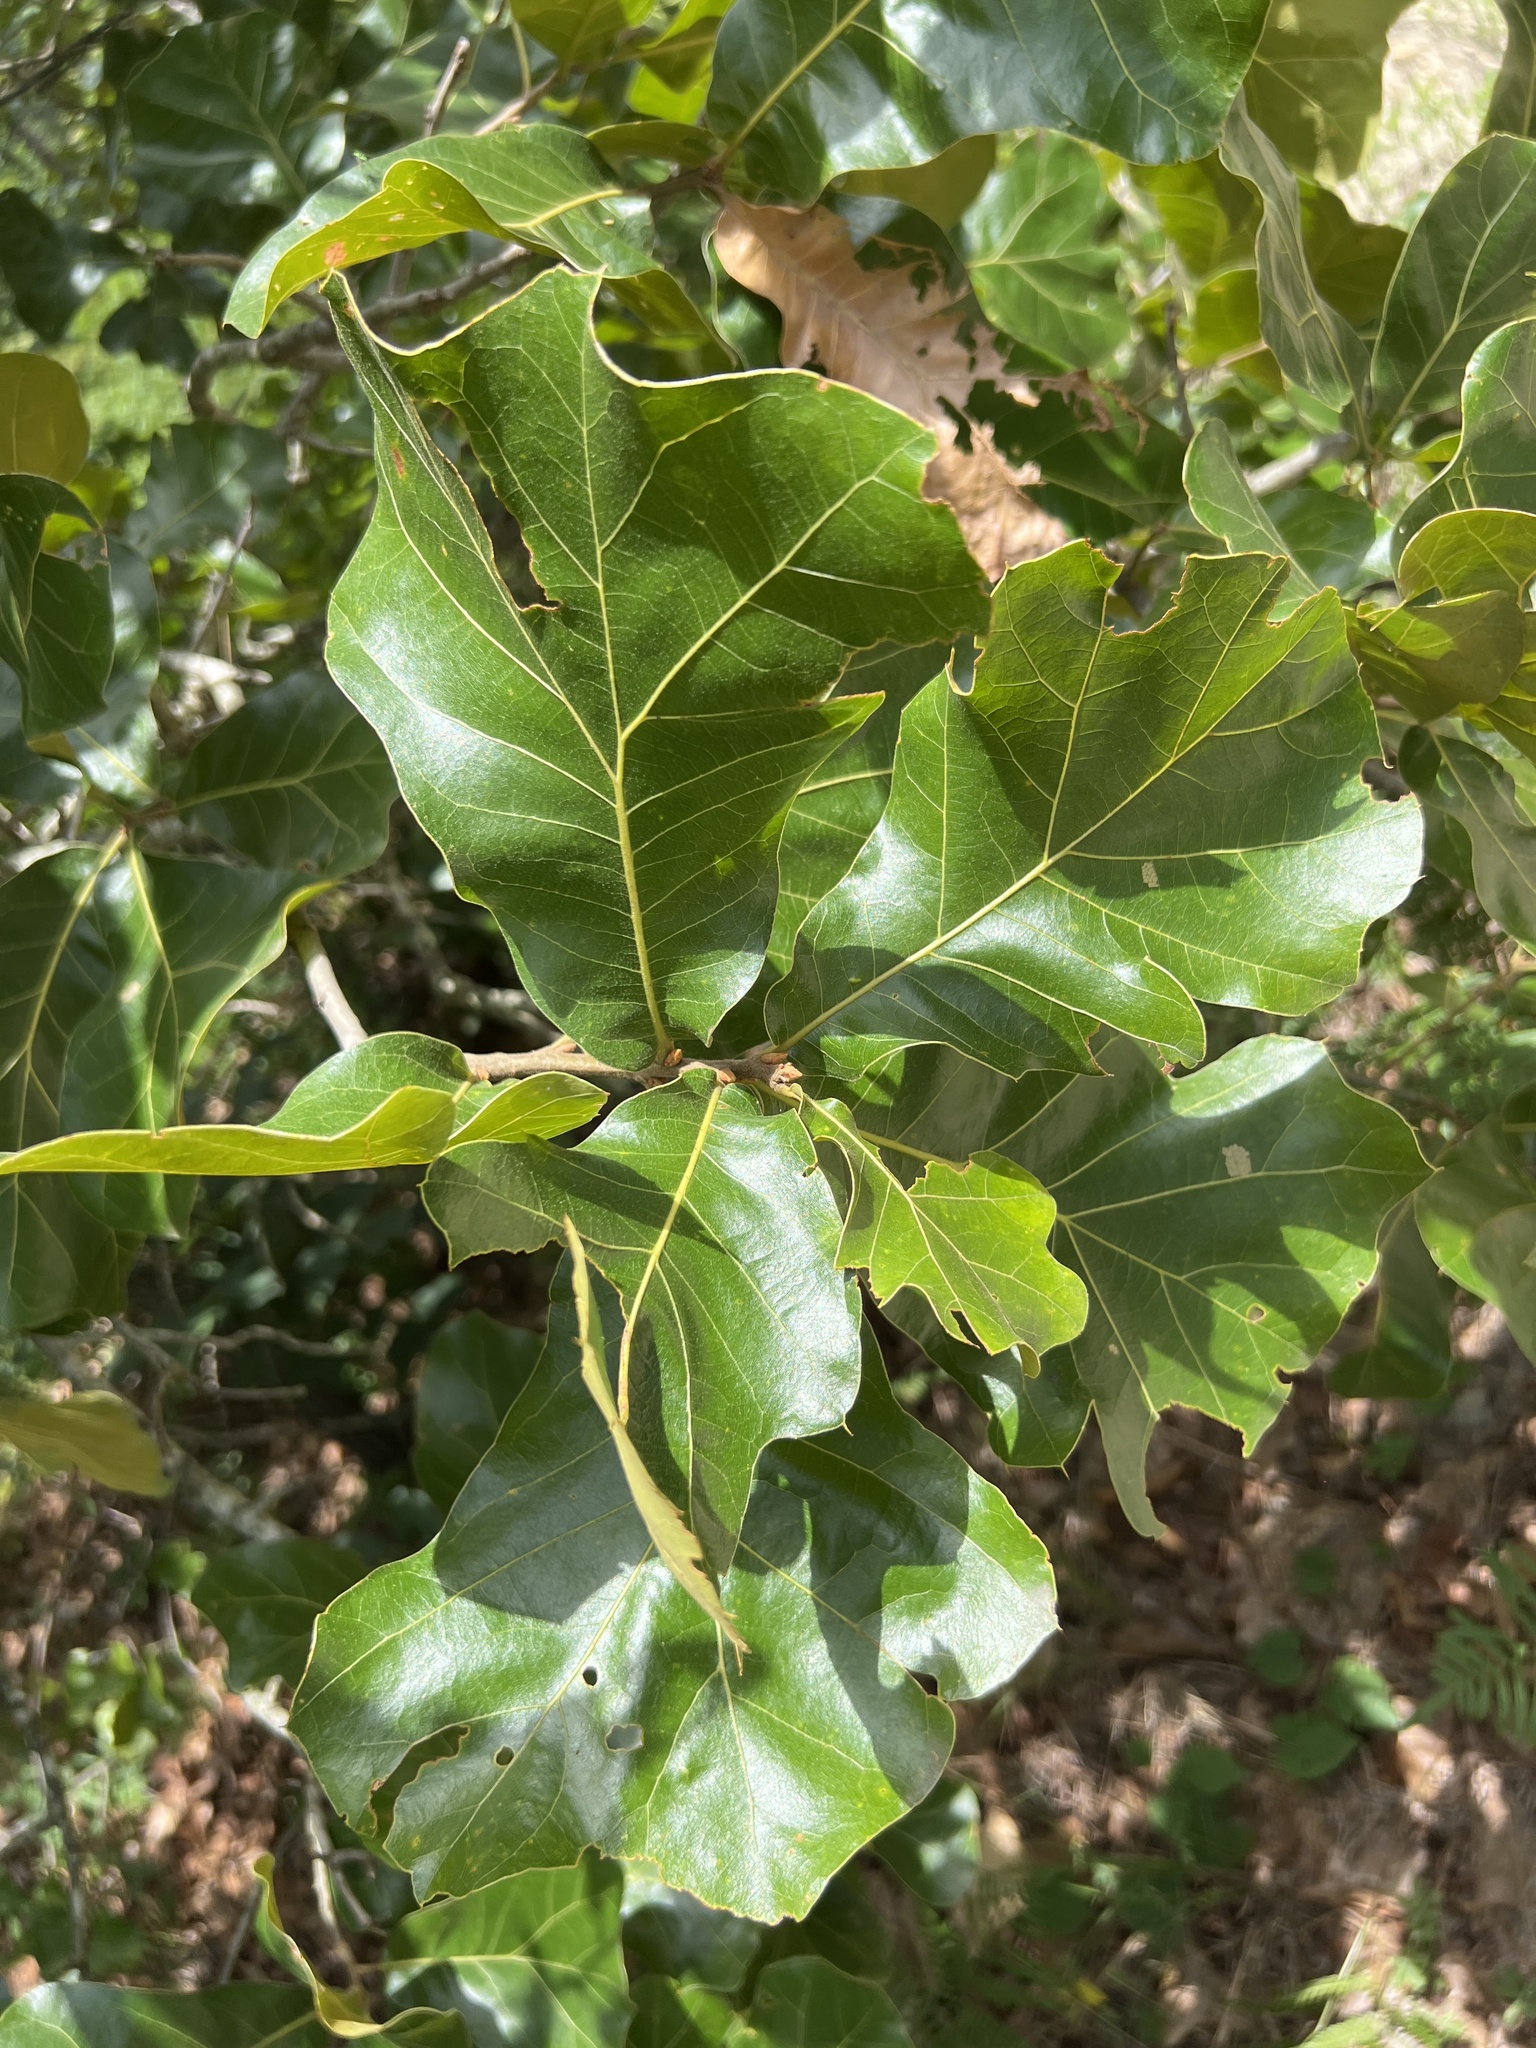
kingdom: Plantae
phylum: Tracheophyta
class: Magnoliopsida
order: Fagales
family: Fagaceae
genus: Quercus
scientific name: Quercus marilandica
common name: Blackjack oak
